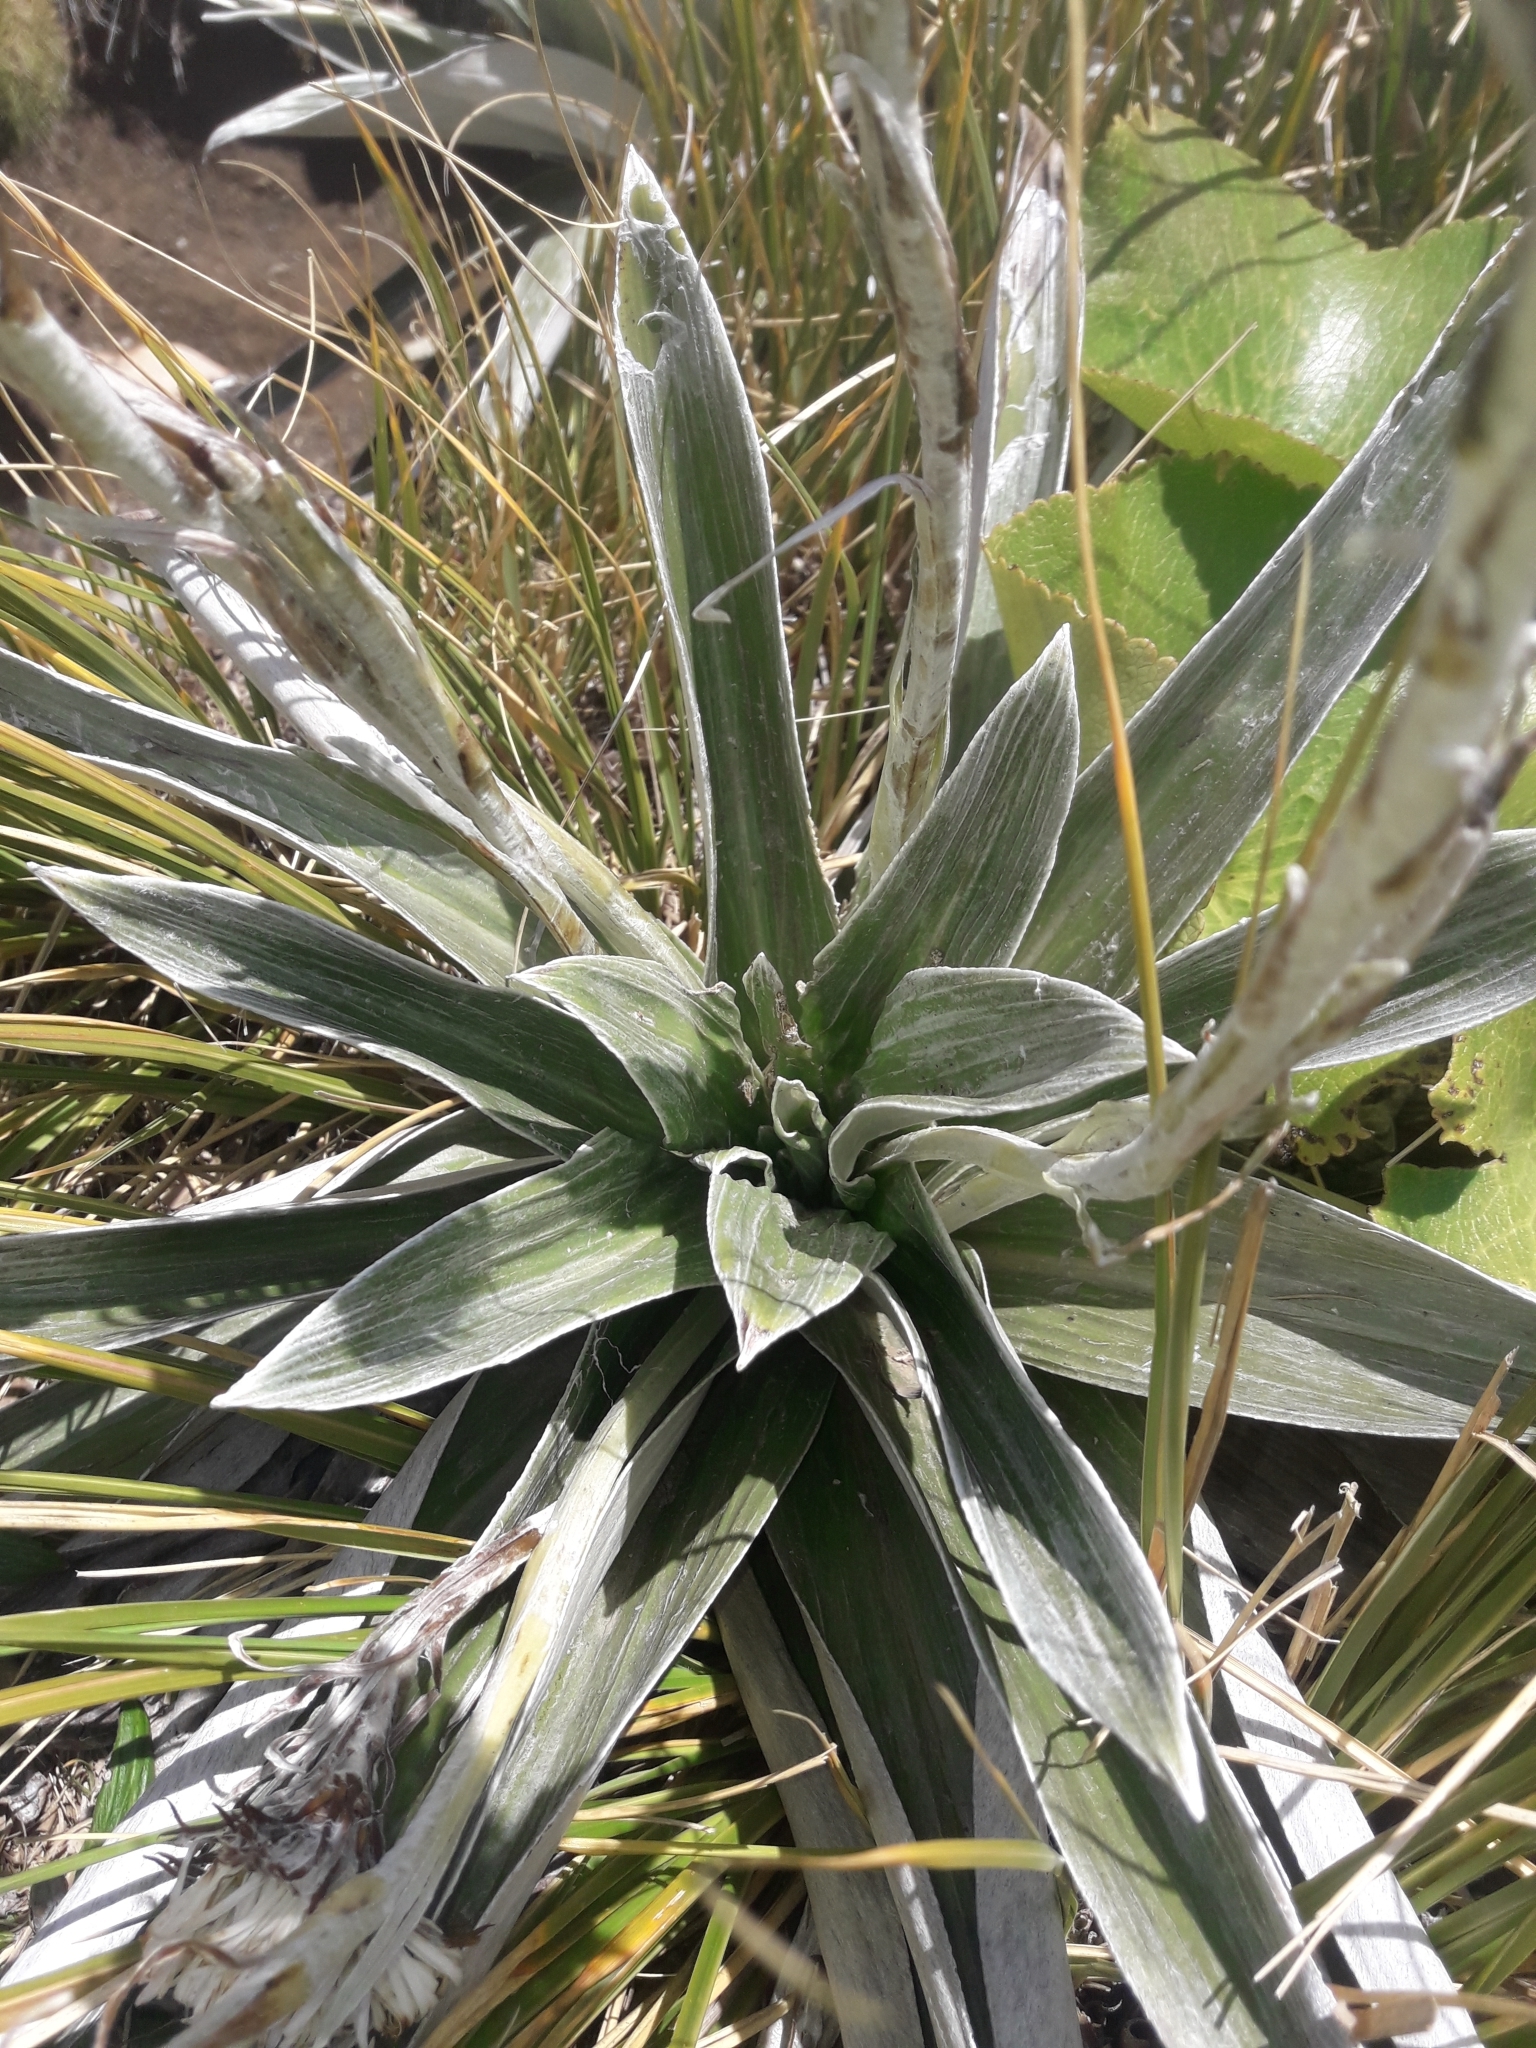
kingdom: Plantae
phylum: Tracheophyta
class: Magnoliopsida
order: Asterales
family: Asteraceae
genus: Celmisia
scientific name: Celmisia semicordata
